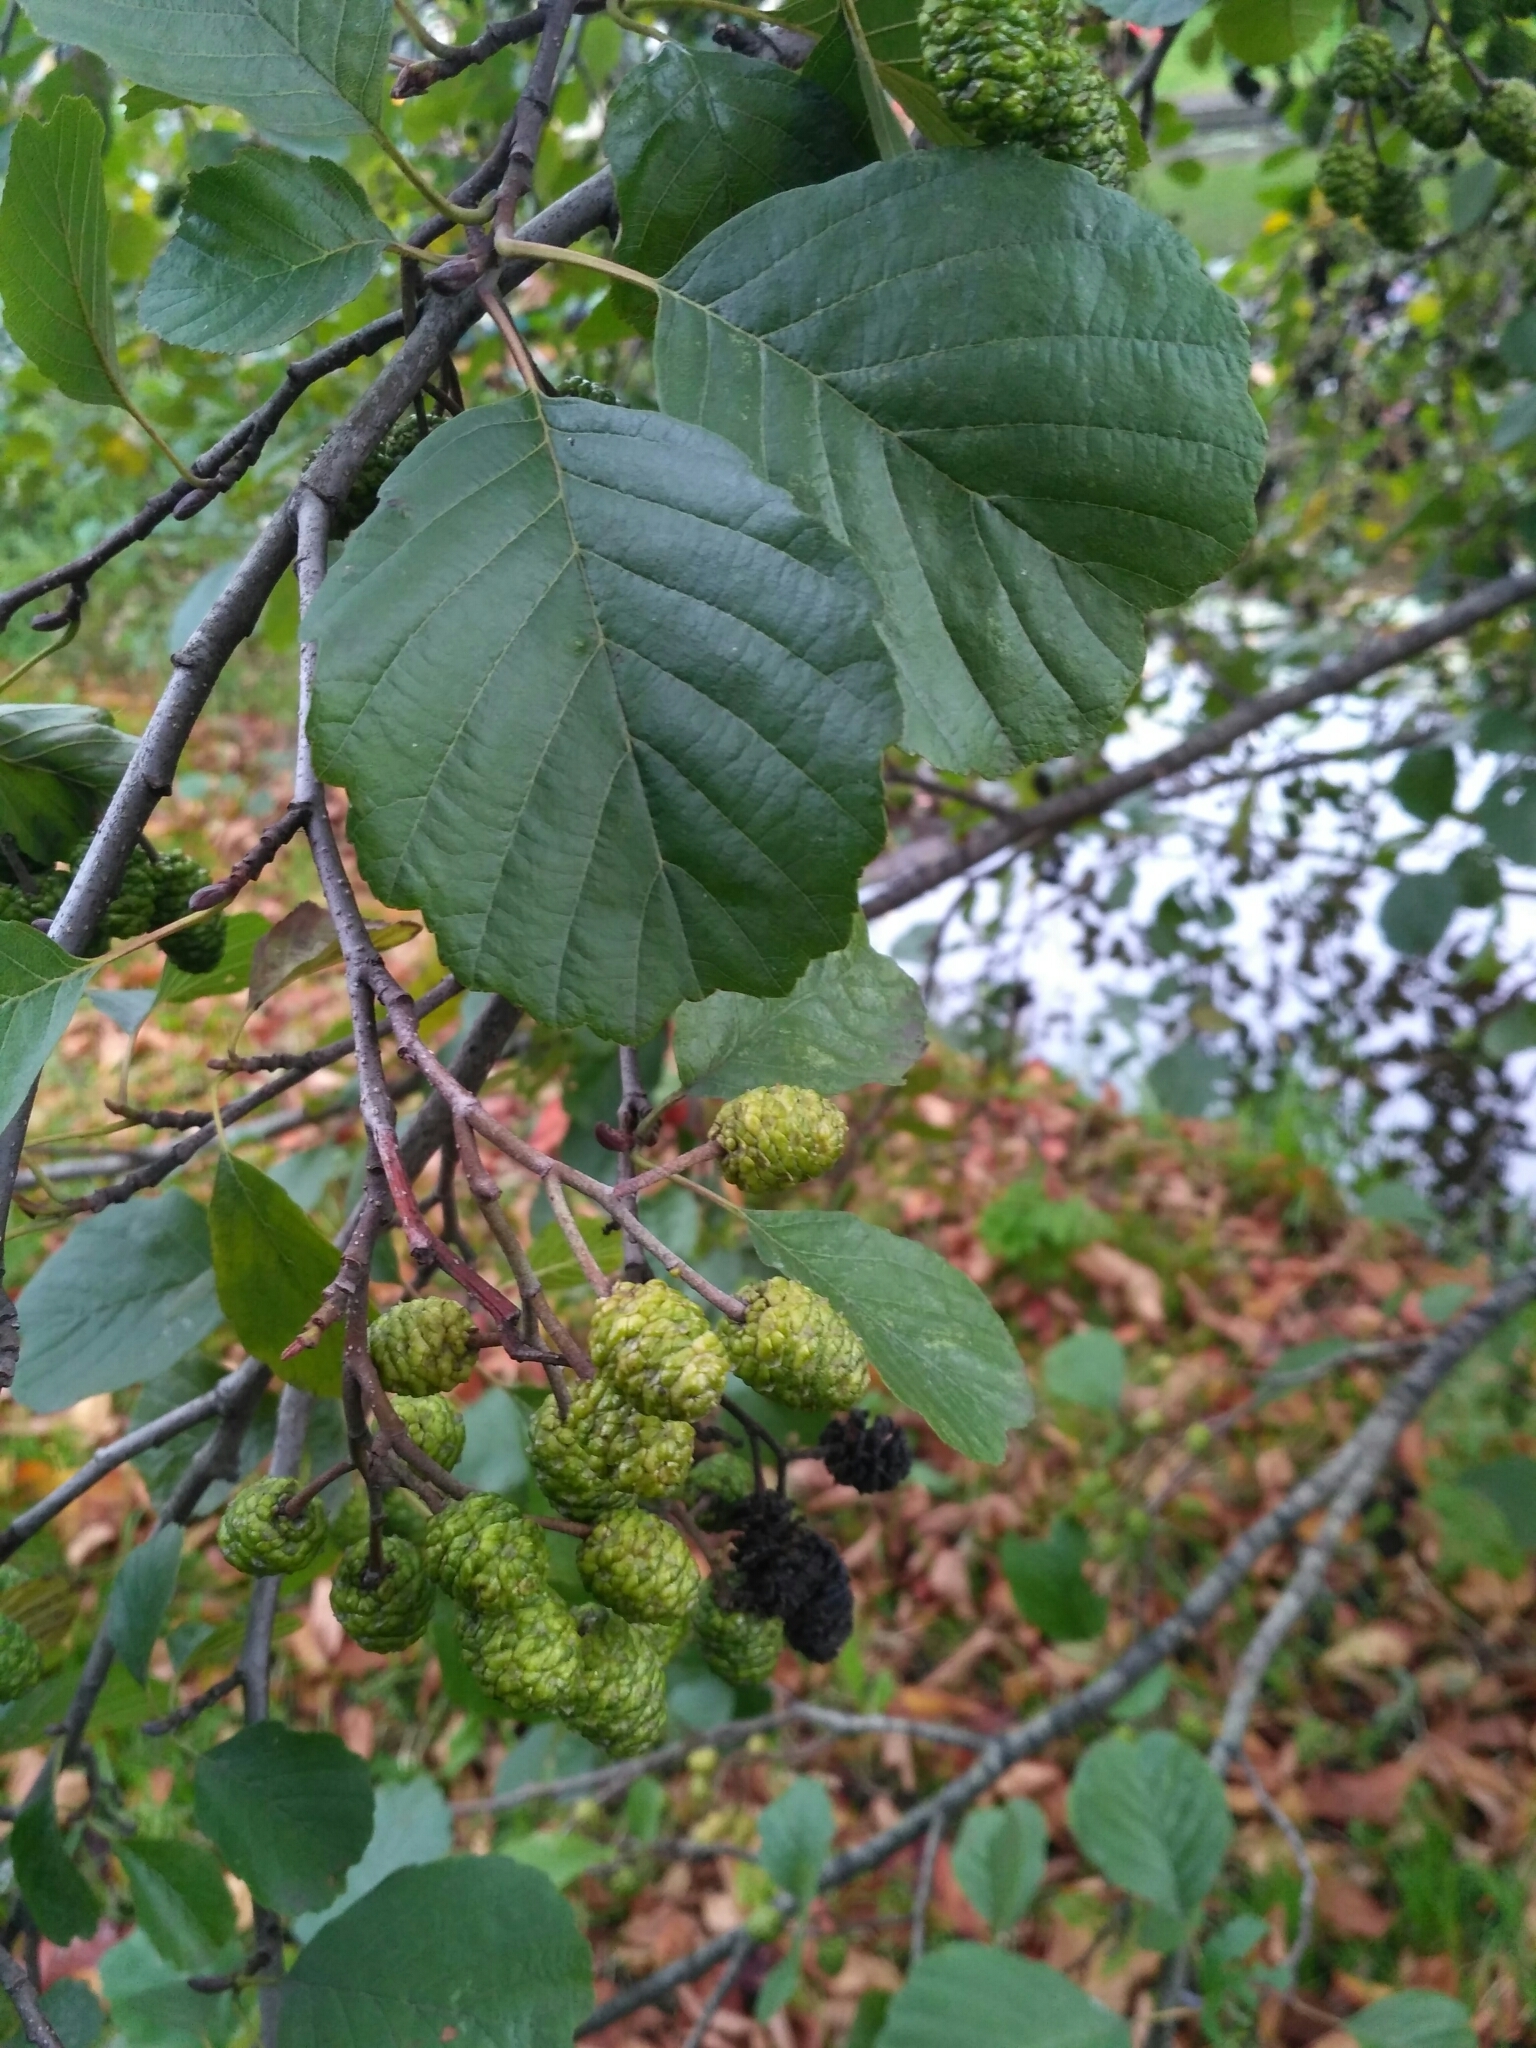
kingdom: Plantae
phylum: Tracheophyta
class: Magnoliopsida
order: Fagales
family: Betulaceae
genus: Alnus
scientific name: Alnus glutinosa
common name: Black alder
